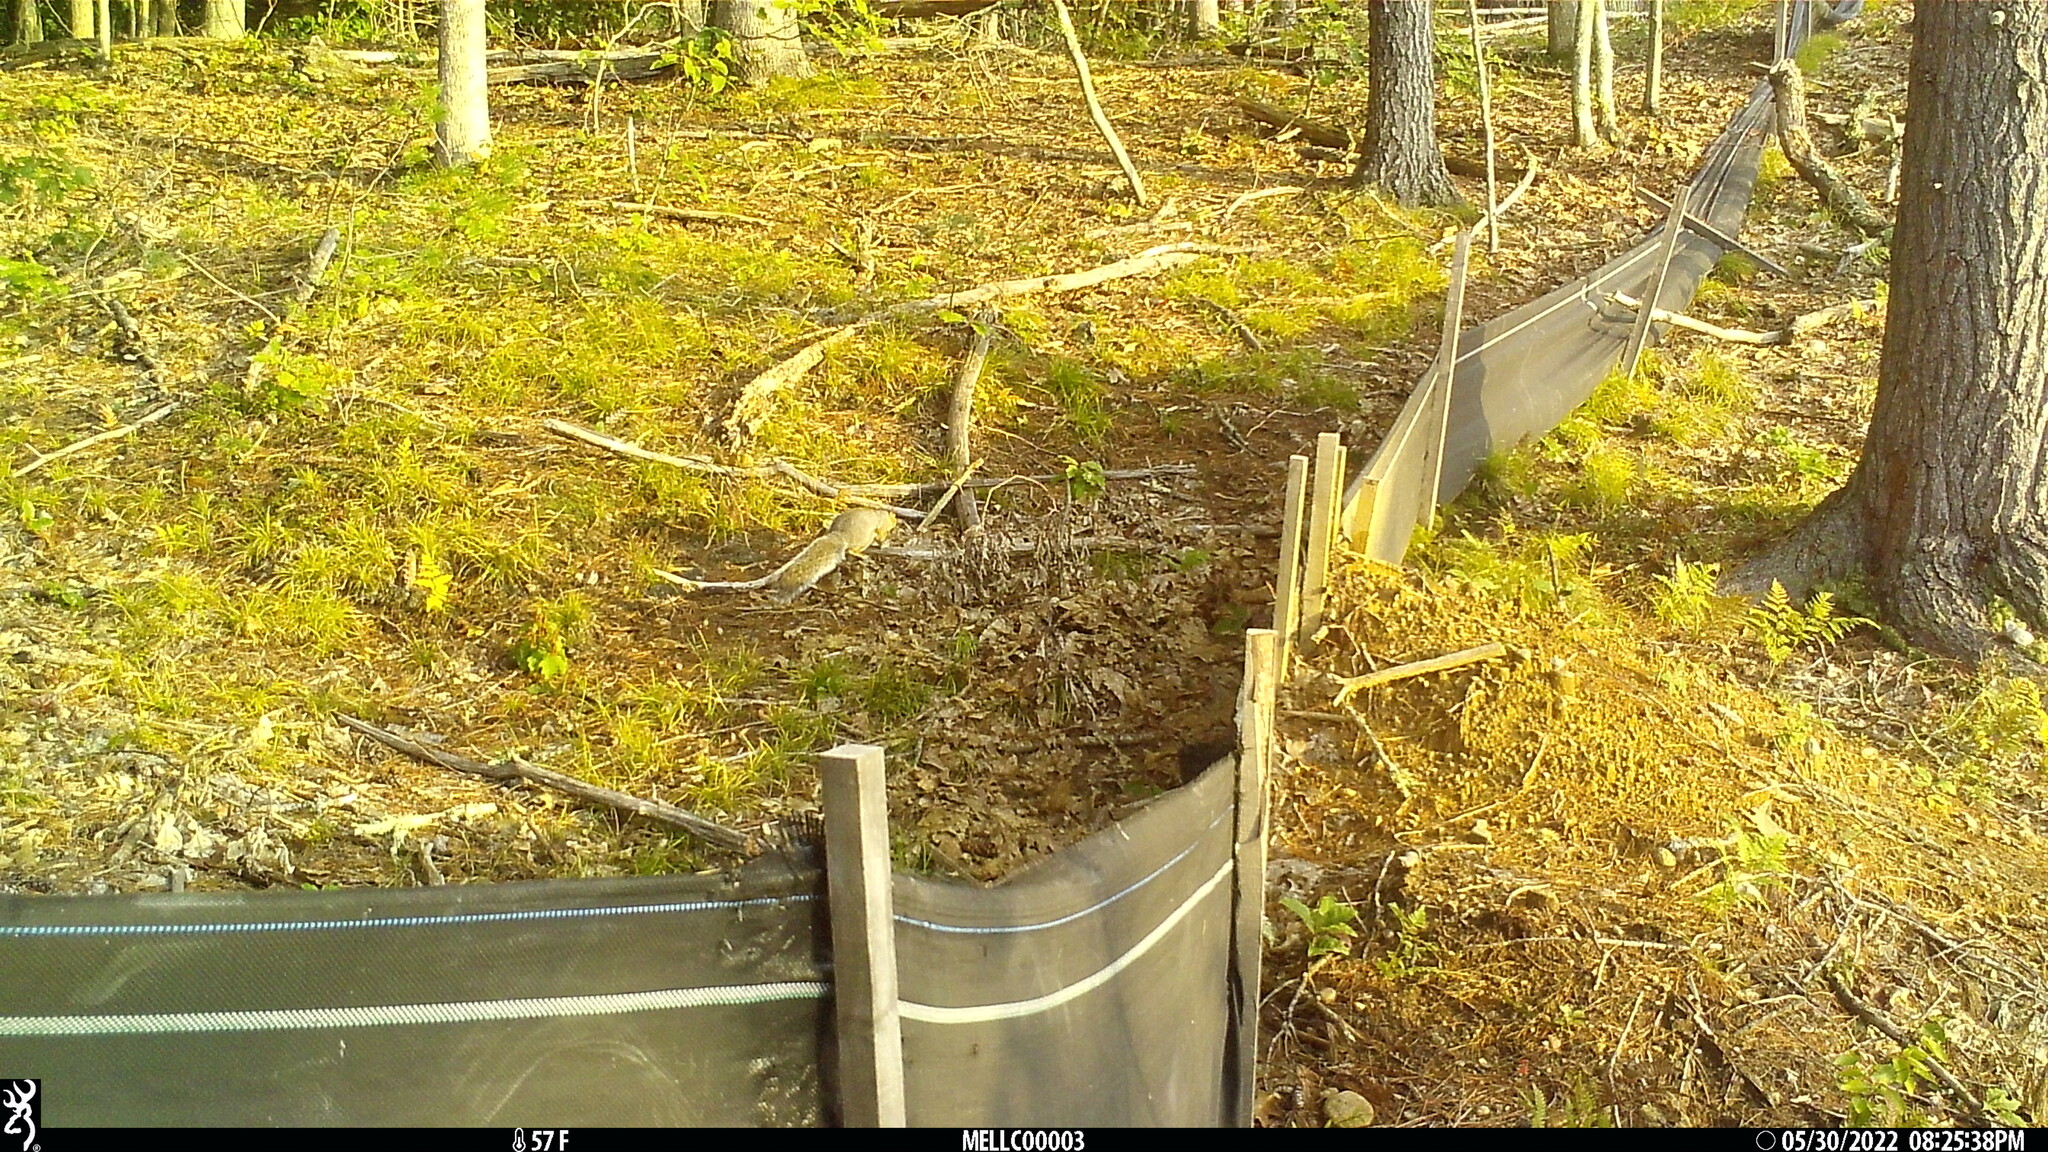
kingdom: Animalia
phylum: Chordata
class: Mammalia
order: Rodentia
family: Sciuridae
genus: Sciurus
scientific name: Sciurus carolinensis
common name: Eastern gray squirrel
